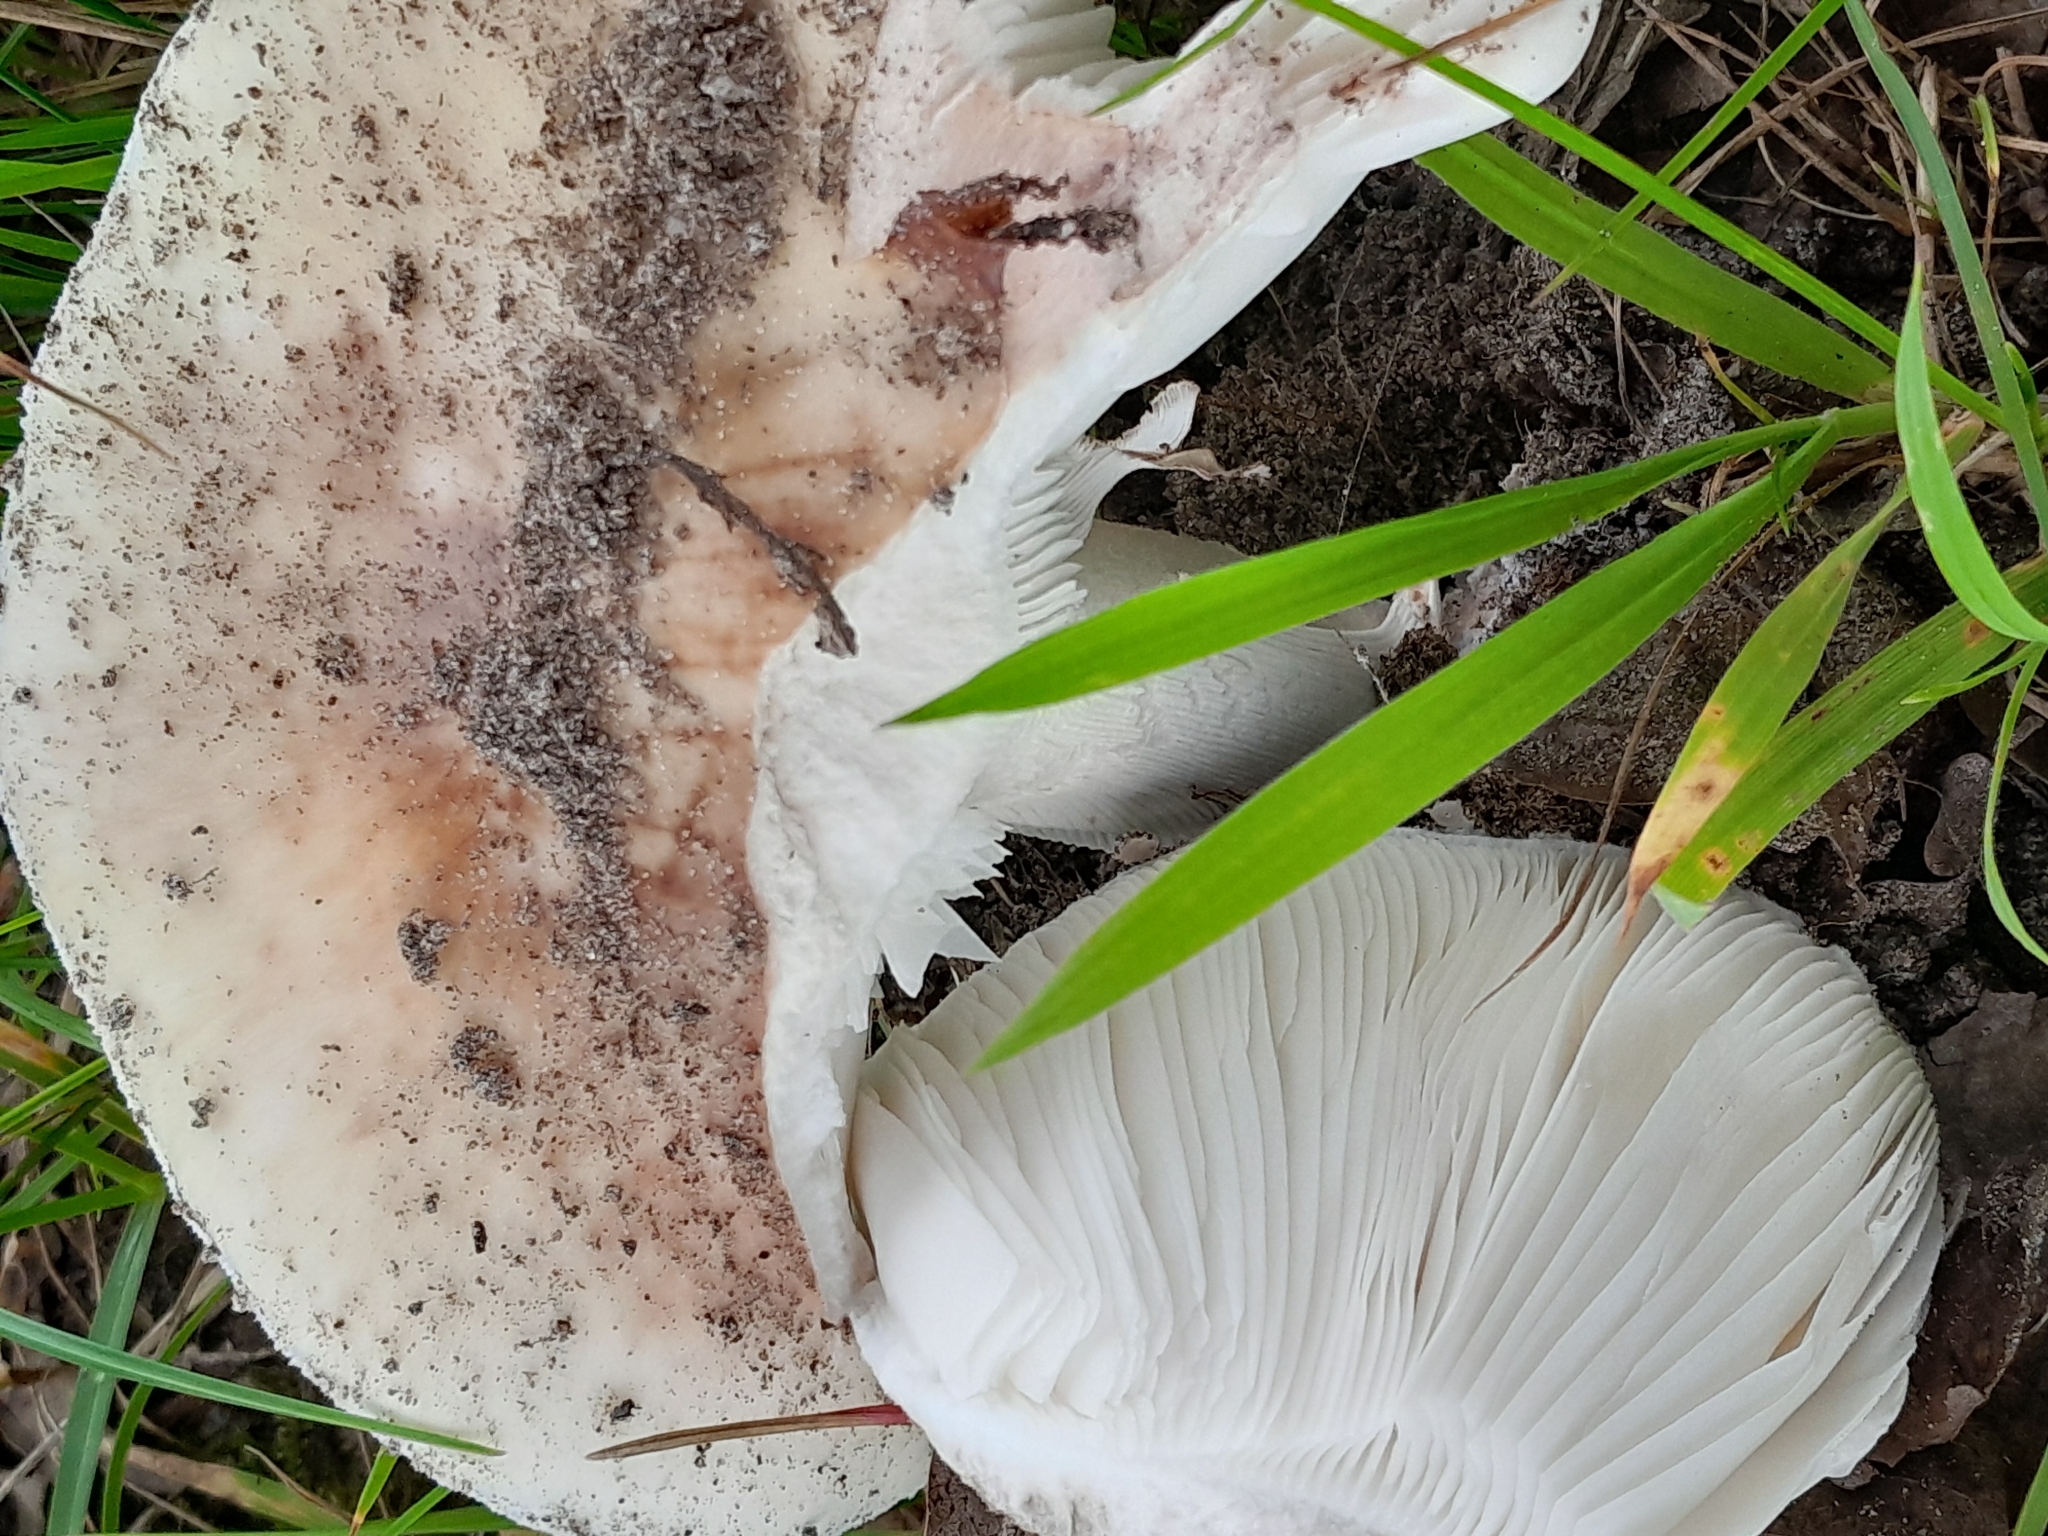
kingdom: Fungi
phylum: Basidiomycota
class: Agaricomycetes
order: Agaricales
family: Amanitaceae
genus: Amanita
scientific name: Amanita rubescens
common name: Blusher
